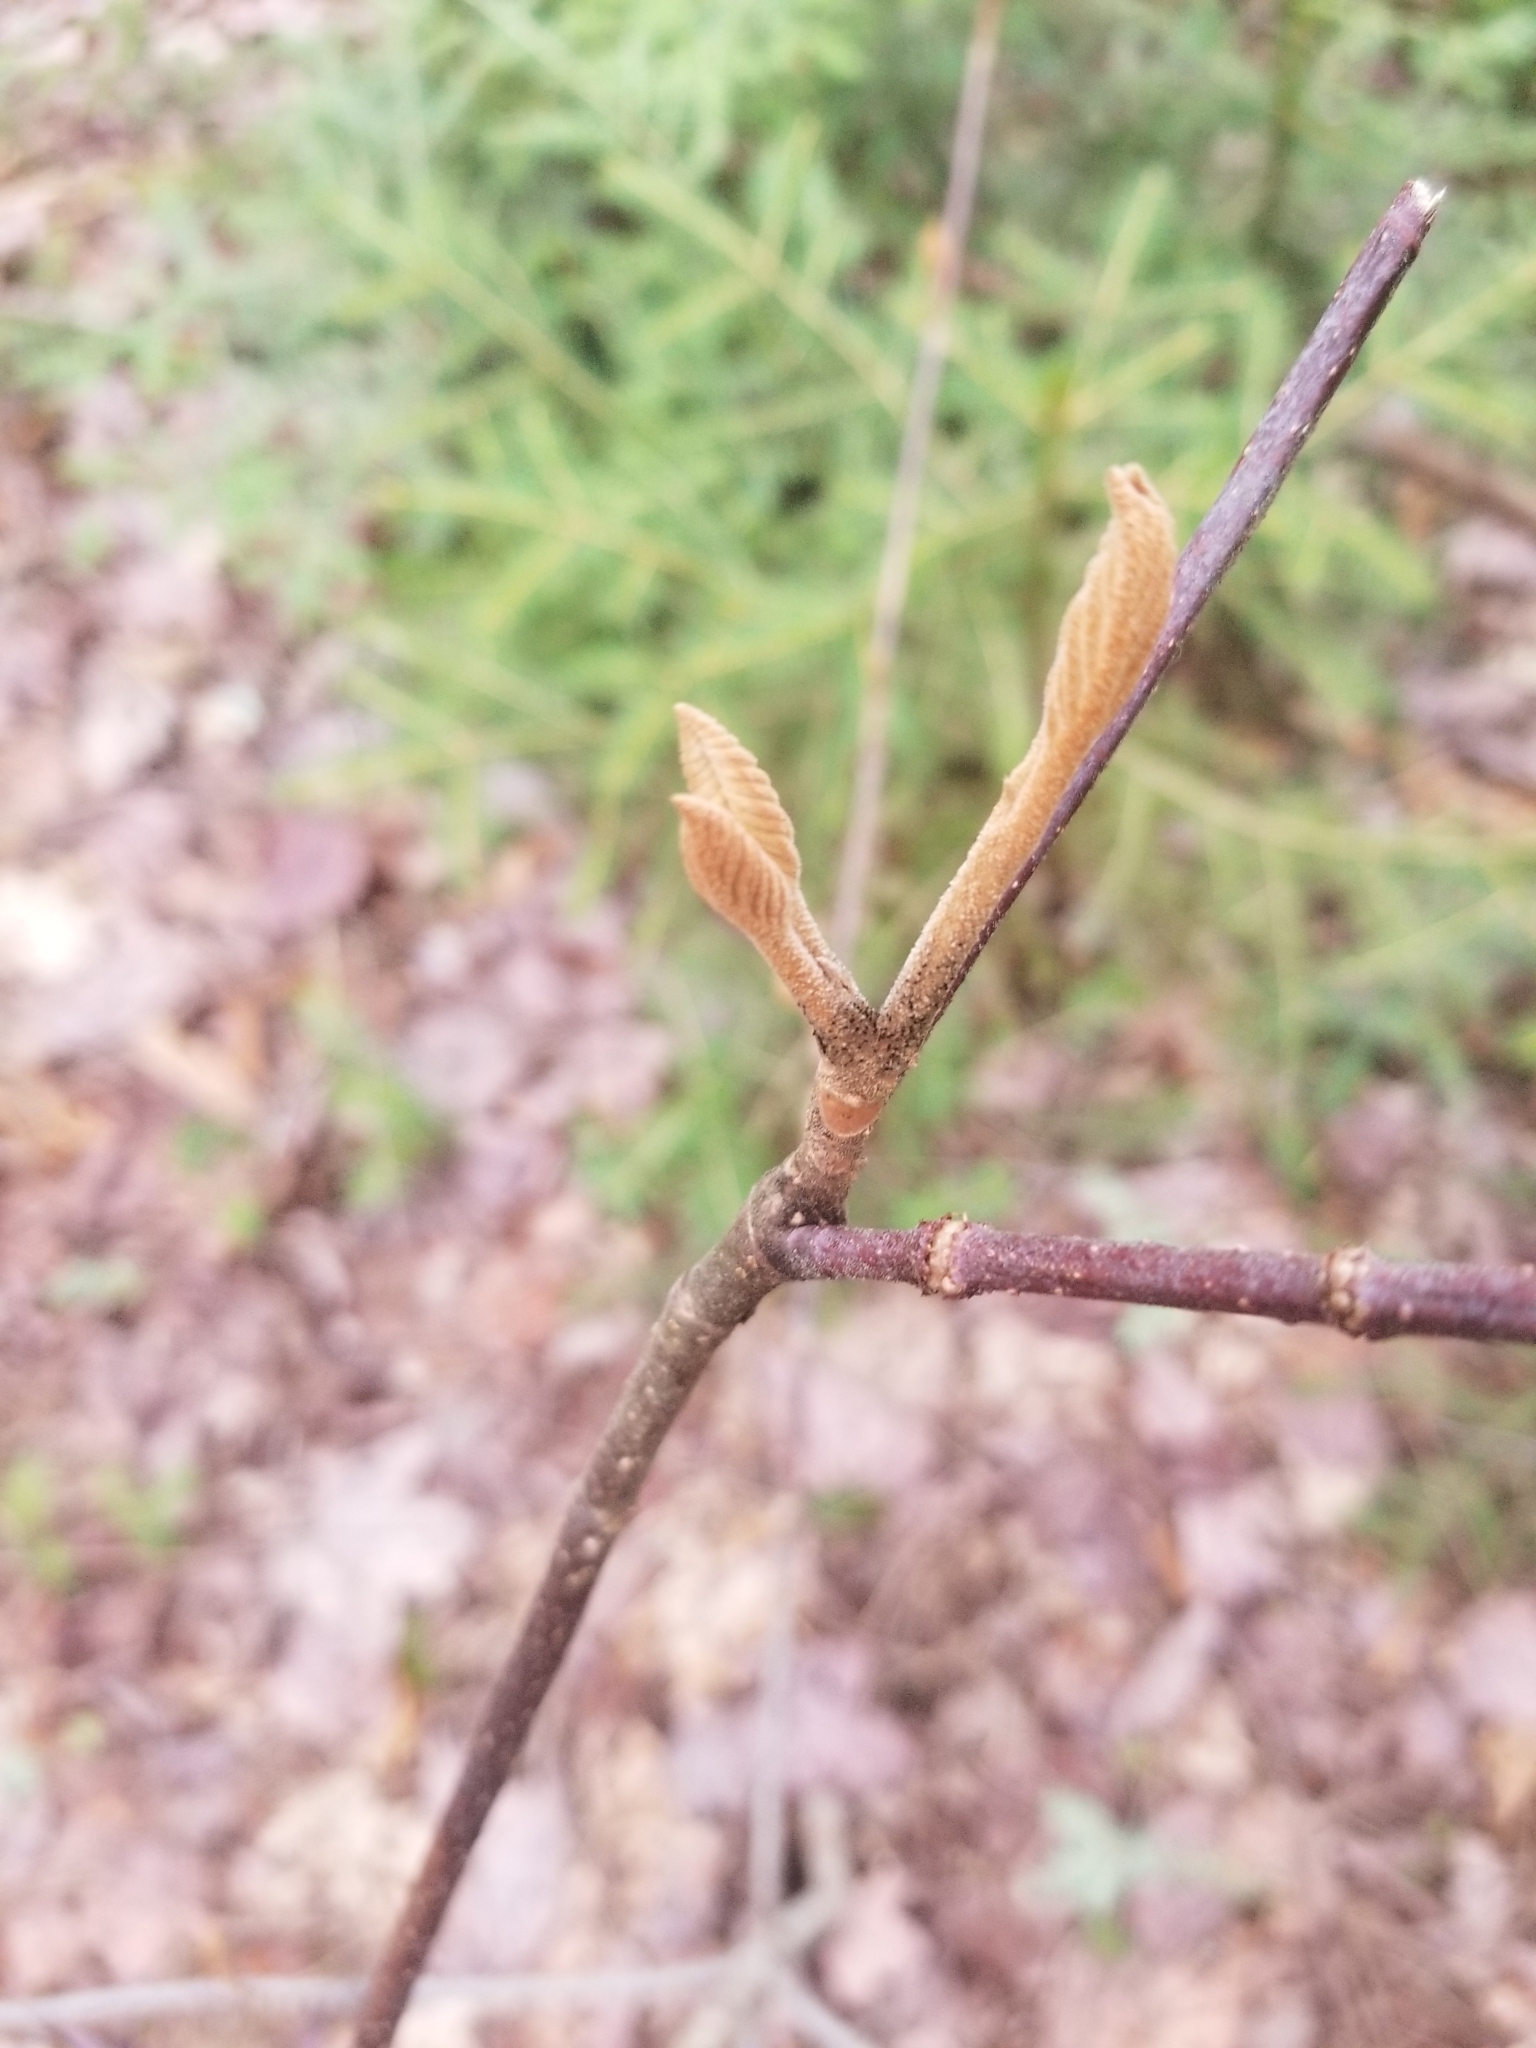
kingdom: Plantae
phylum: Tracheophyta
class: Magnoliopsida
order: Dipsacales
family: Viburnaceae
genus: Viburnum
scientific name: Viburnum lantanoides
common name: Hobblebush
